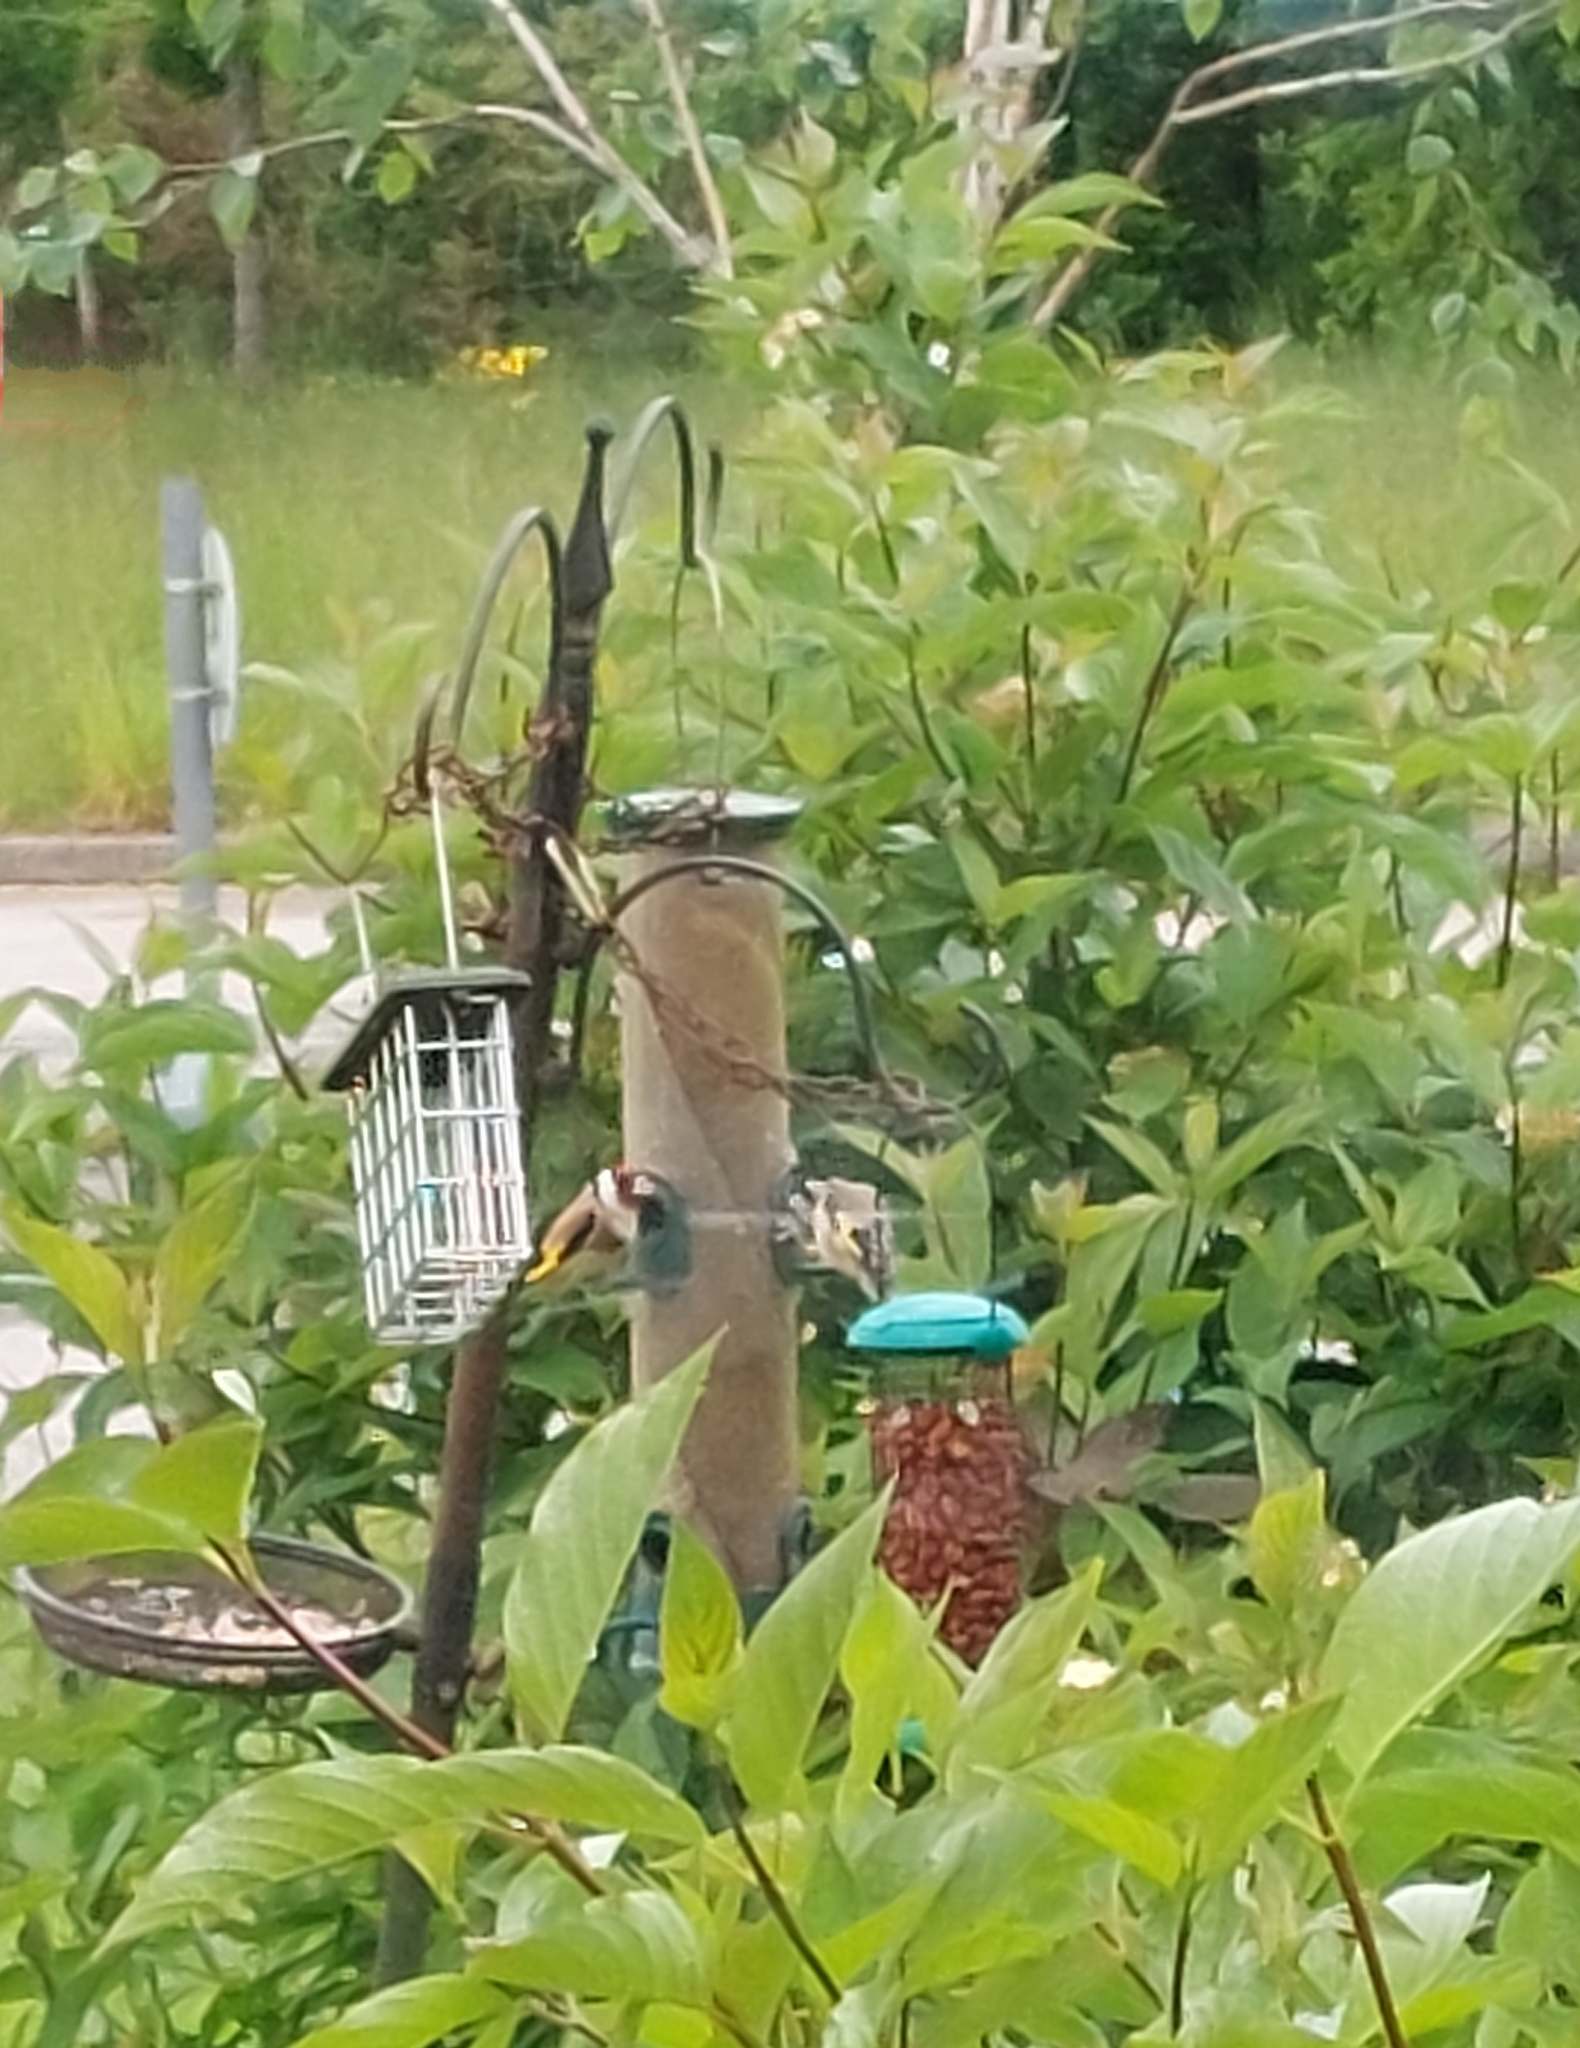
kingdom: Animalia
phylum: Chordata
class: Aves
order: Passeriformes
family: Fringillidae
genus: Carduelis
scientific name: Carduelis carduelis
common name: European goldfinch
